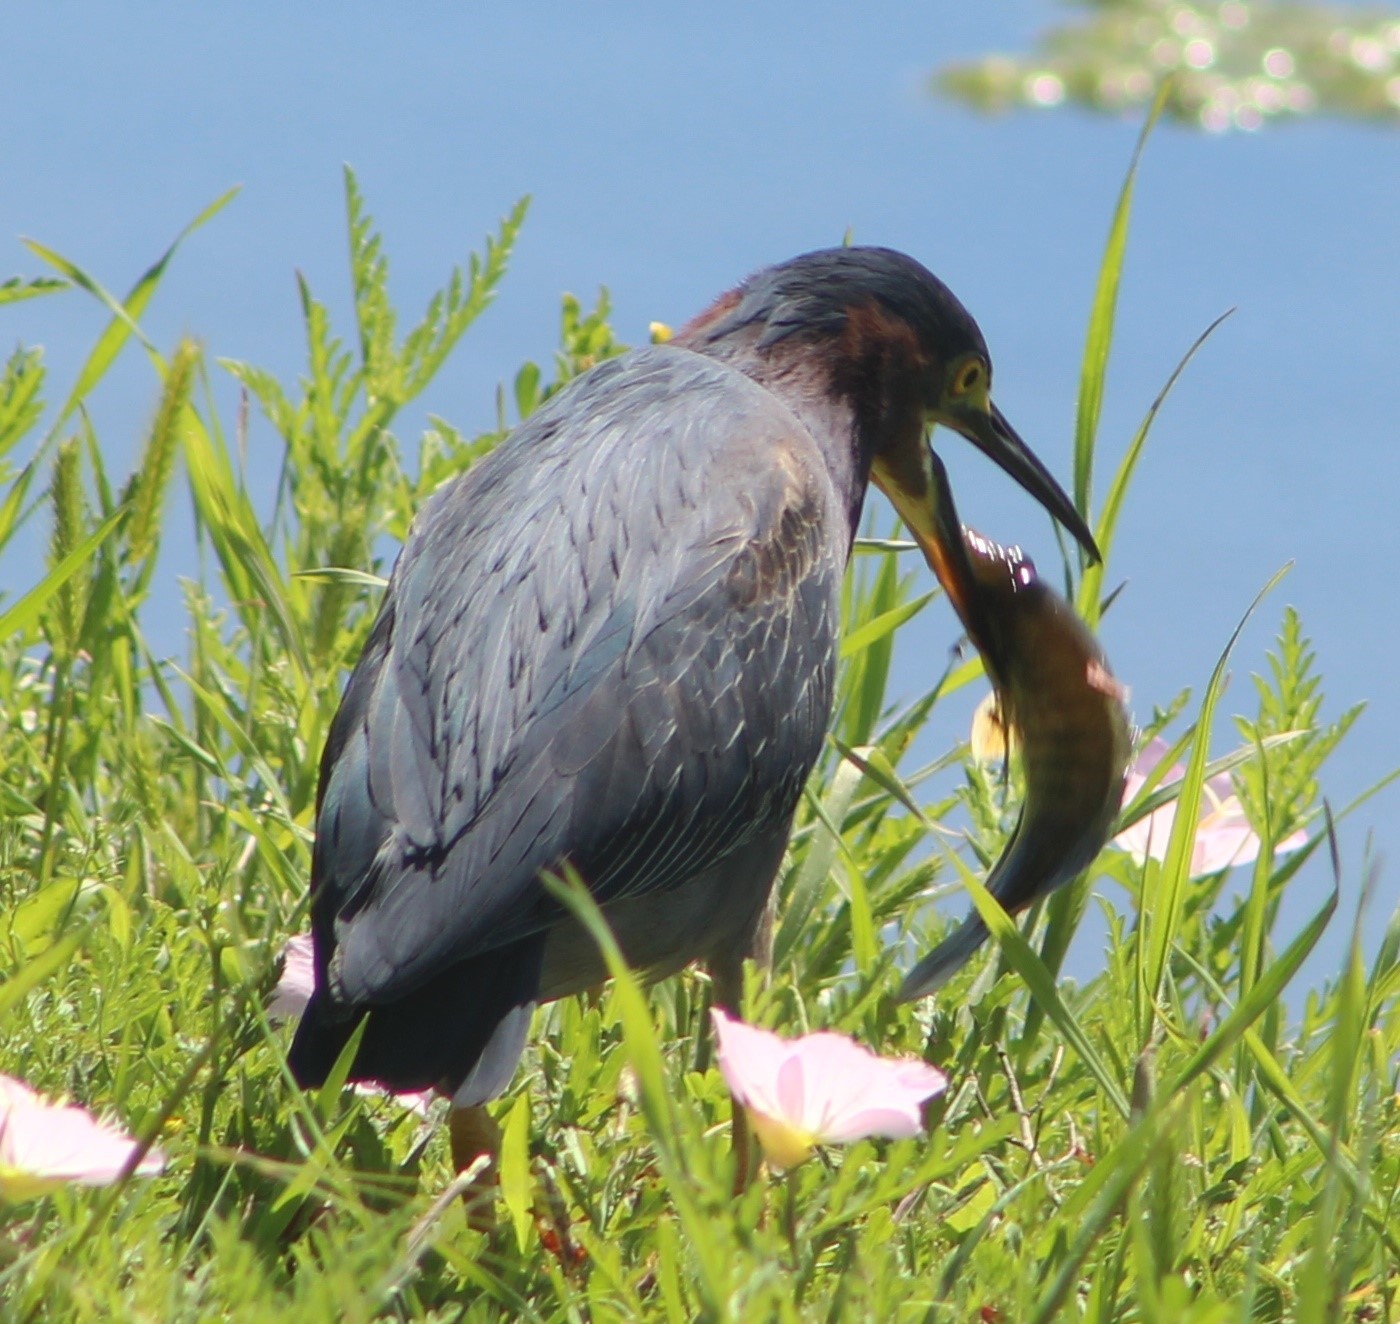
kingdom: Animalia
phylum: Chordata
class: Aves
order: Pelecaniformes
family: Ardeidae
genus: Butorides
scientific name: Butorides virescens
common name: Green heron
